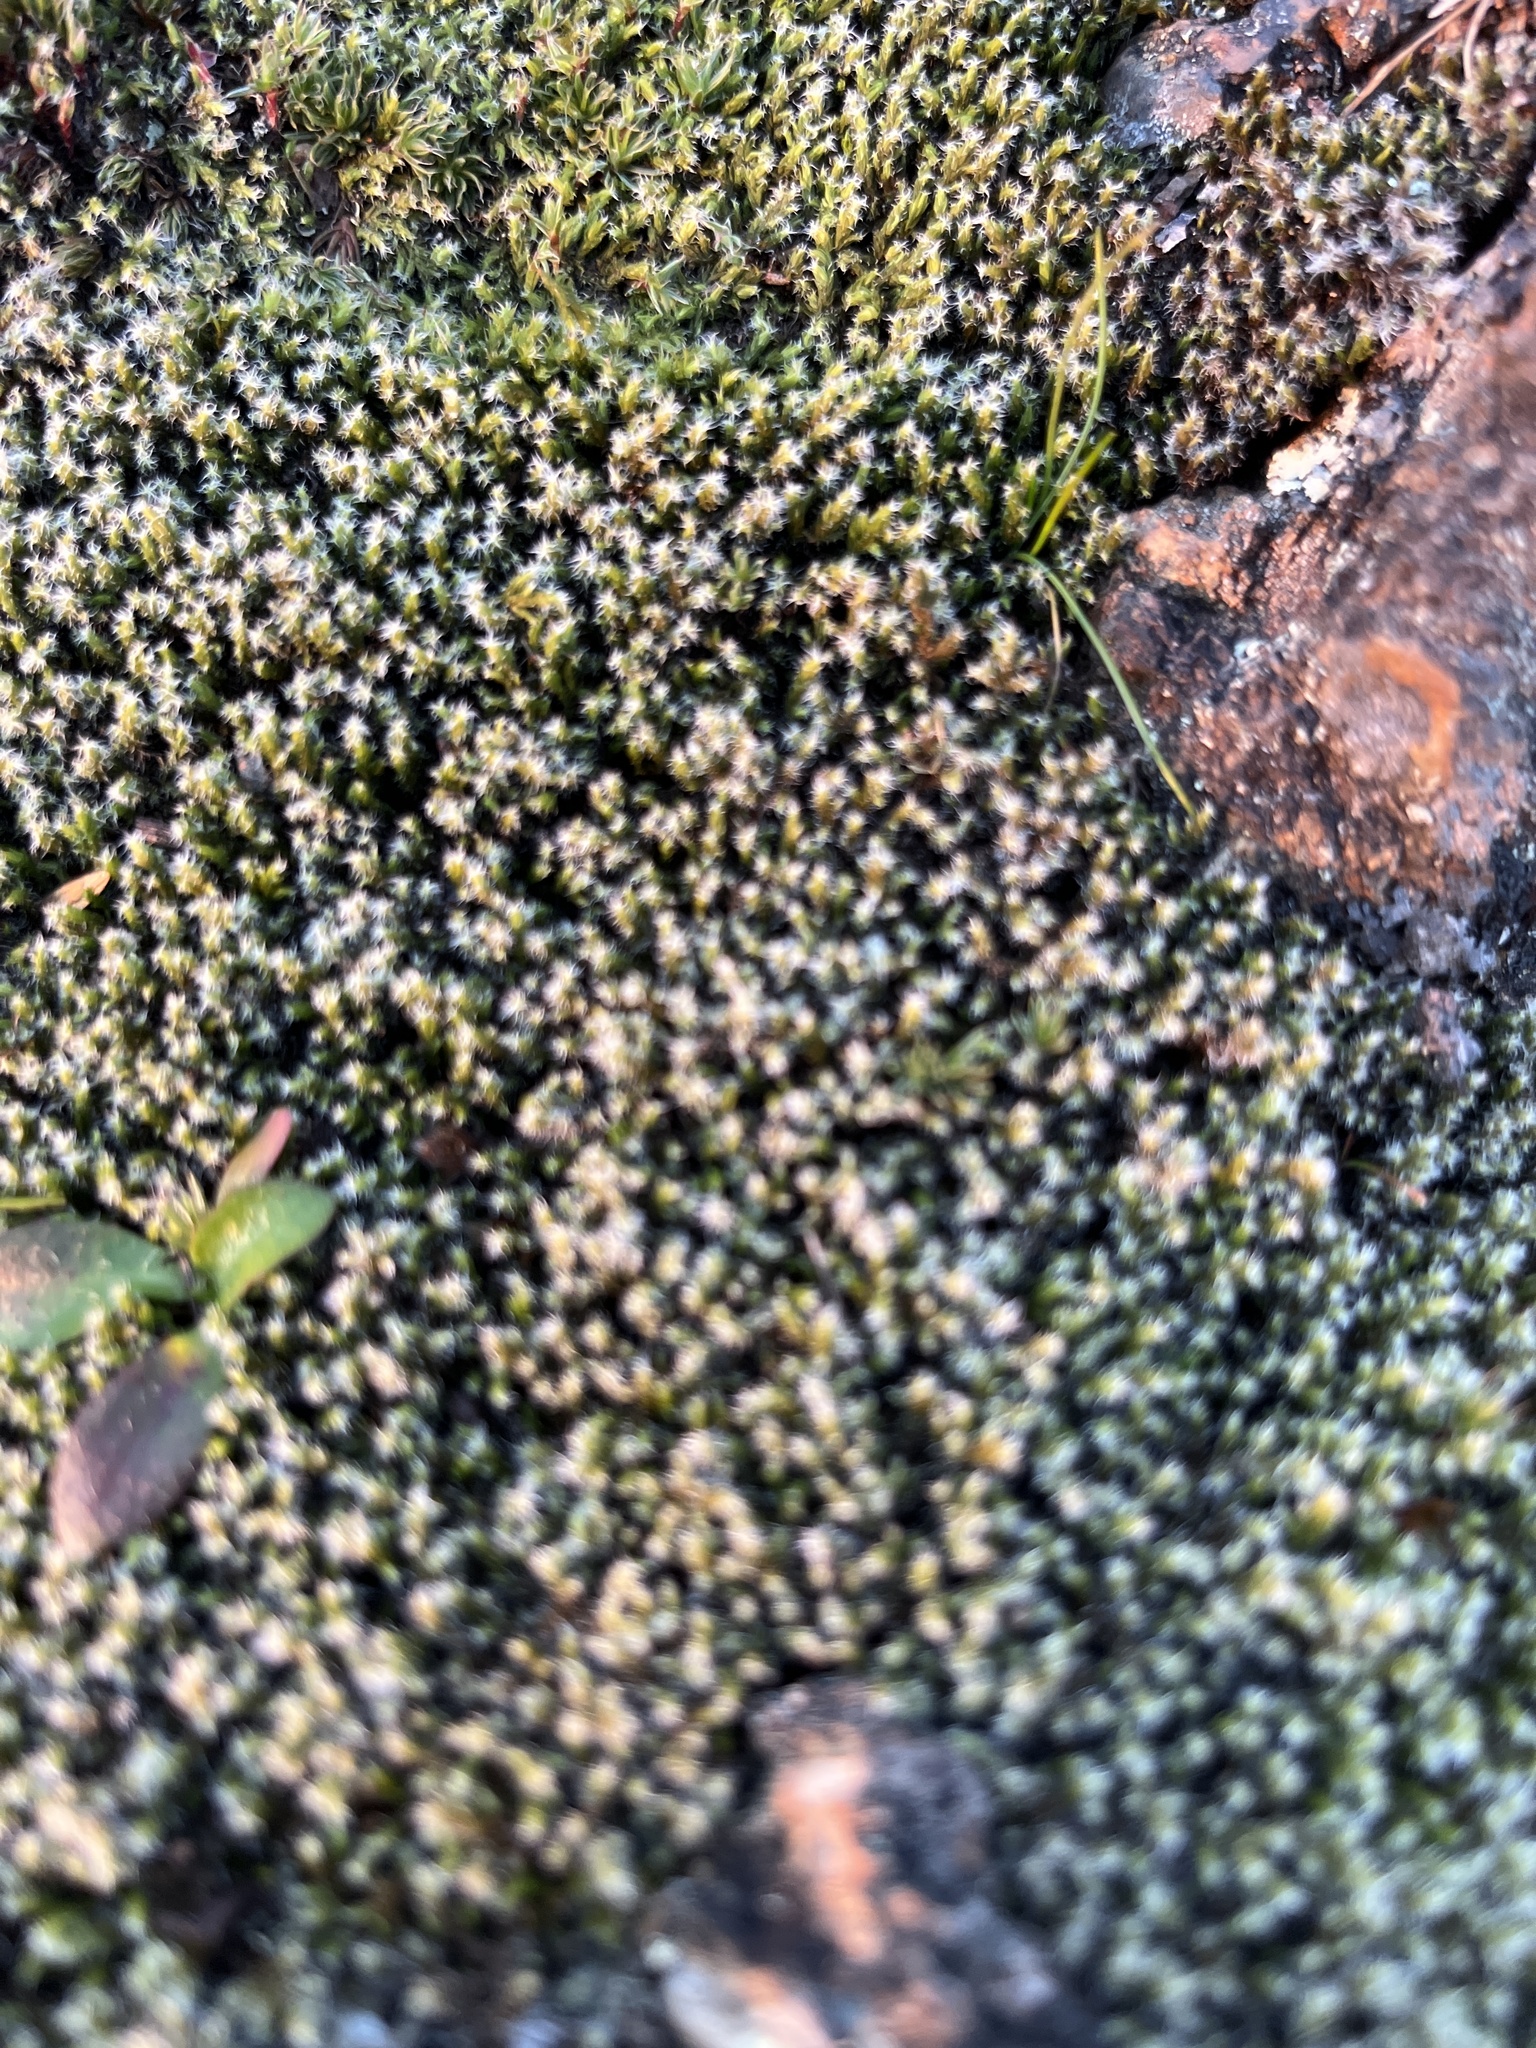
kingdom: Plantae
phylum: Bryophyta
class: Bryopsida
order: Grimmiales
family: Grimmiaceae
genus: Racomitrium
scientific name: Racomitrium lanuginosum
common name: Hoary rock moss
